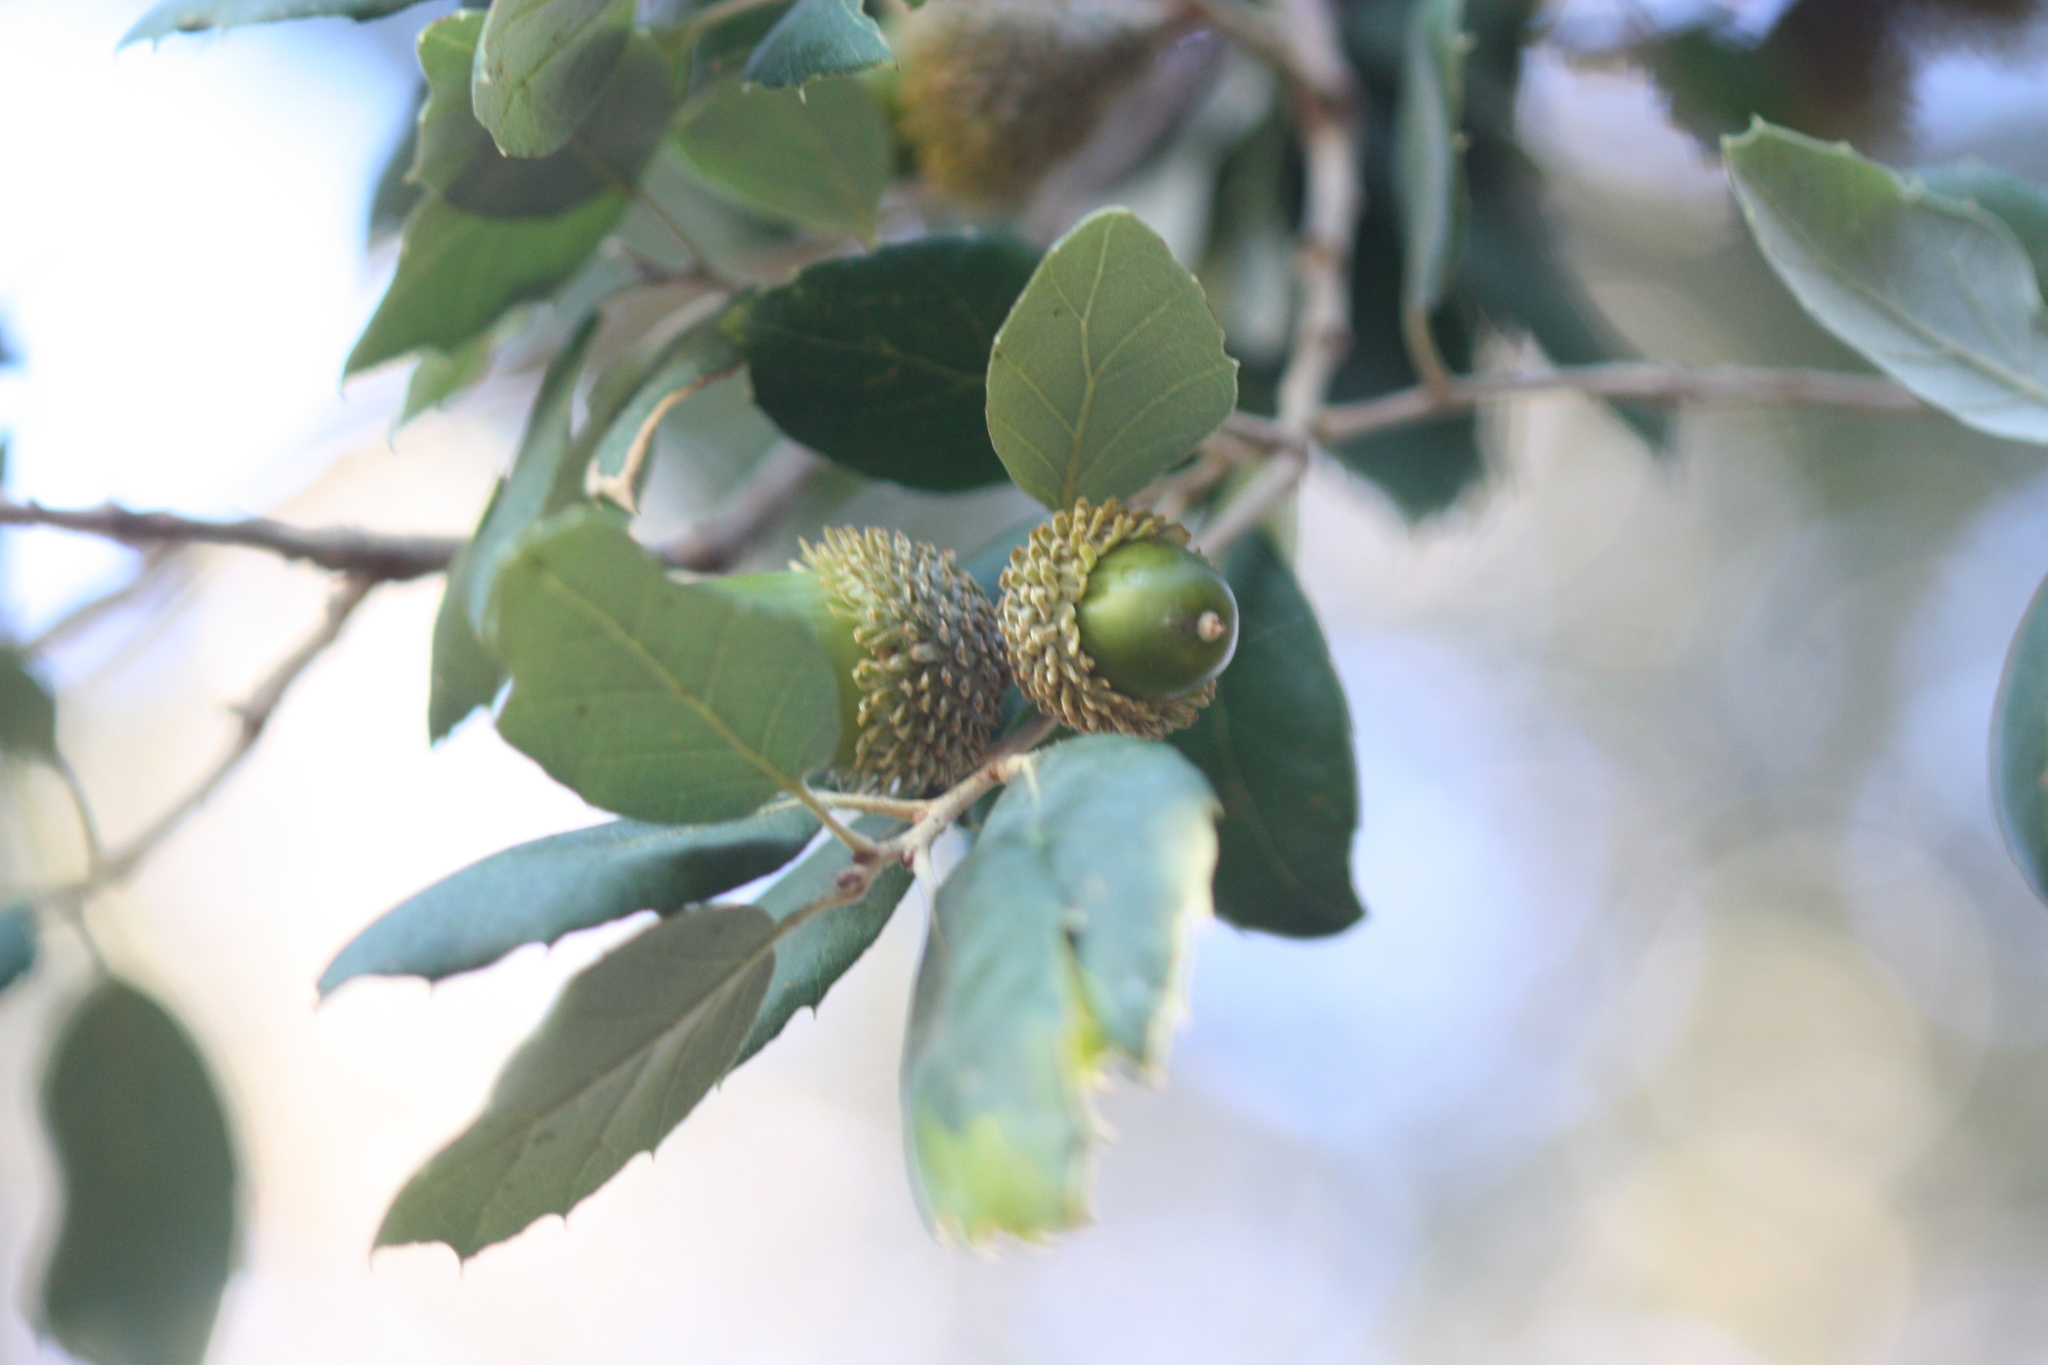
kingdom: Plantae
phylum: Tracheophyta
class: Magnoliopsida
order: Fagales
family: Fagaceae
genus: Quercus
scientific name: Quercus suber
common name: Cork oak
